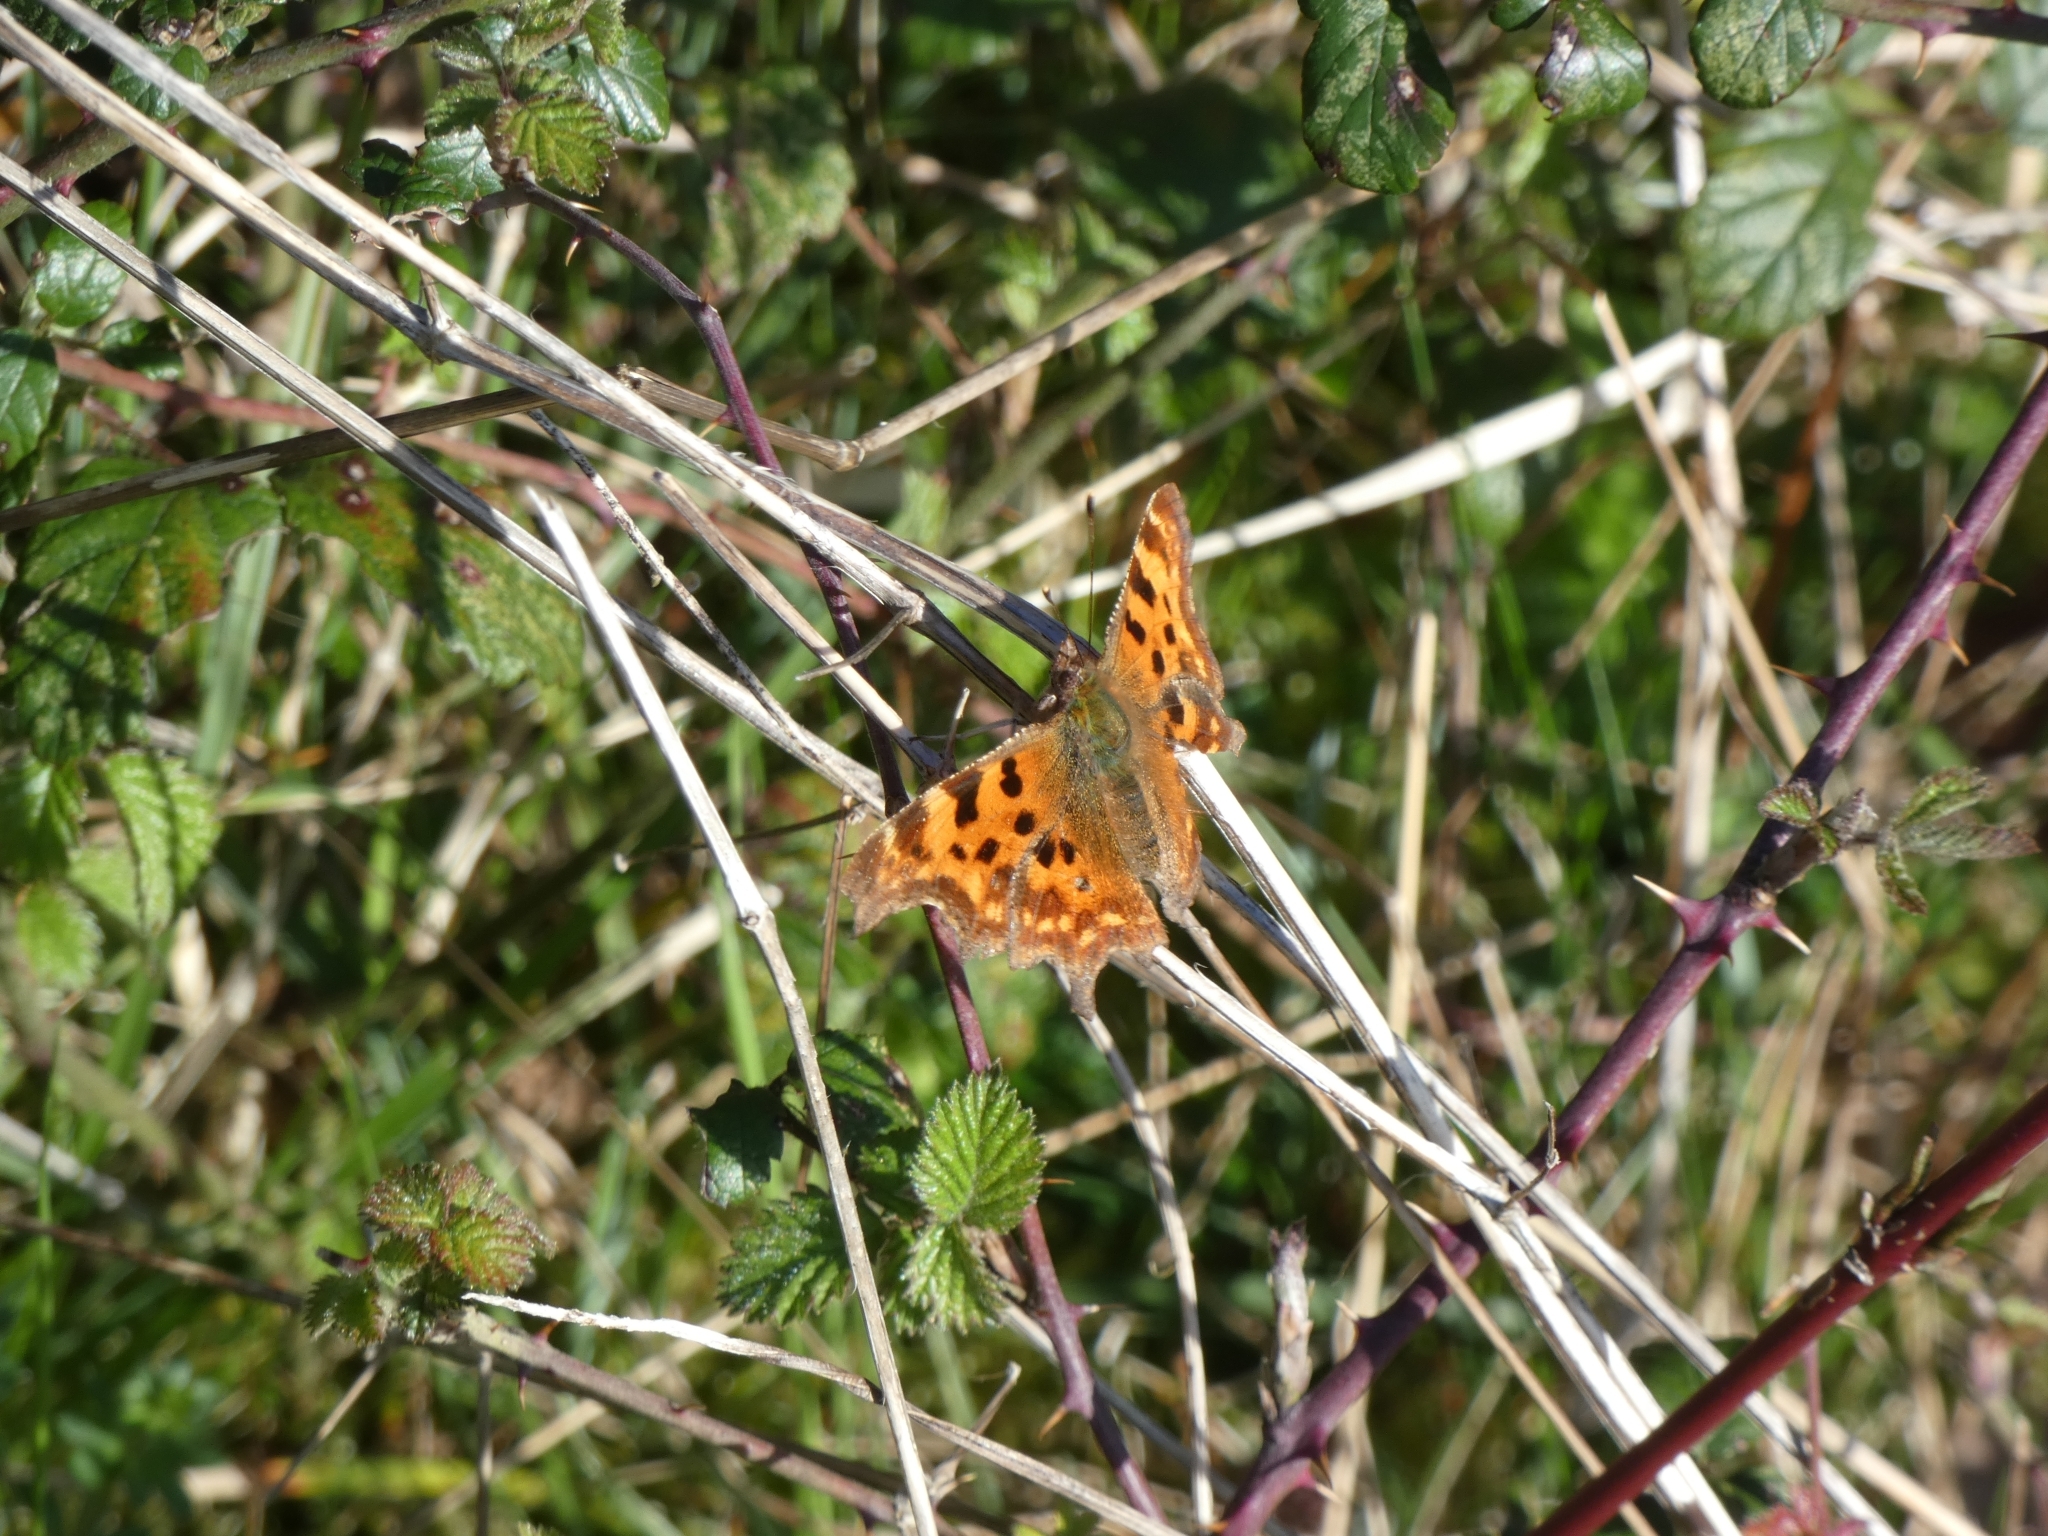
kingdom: Animalia
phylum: Arthropoda
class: Insecta
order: Lepidoptera
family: Nymphalidae
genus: Polygonia
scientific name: Polygonia c-album
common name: Comma
